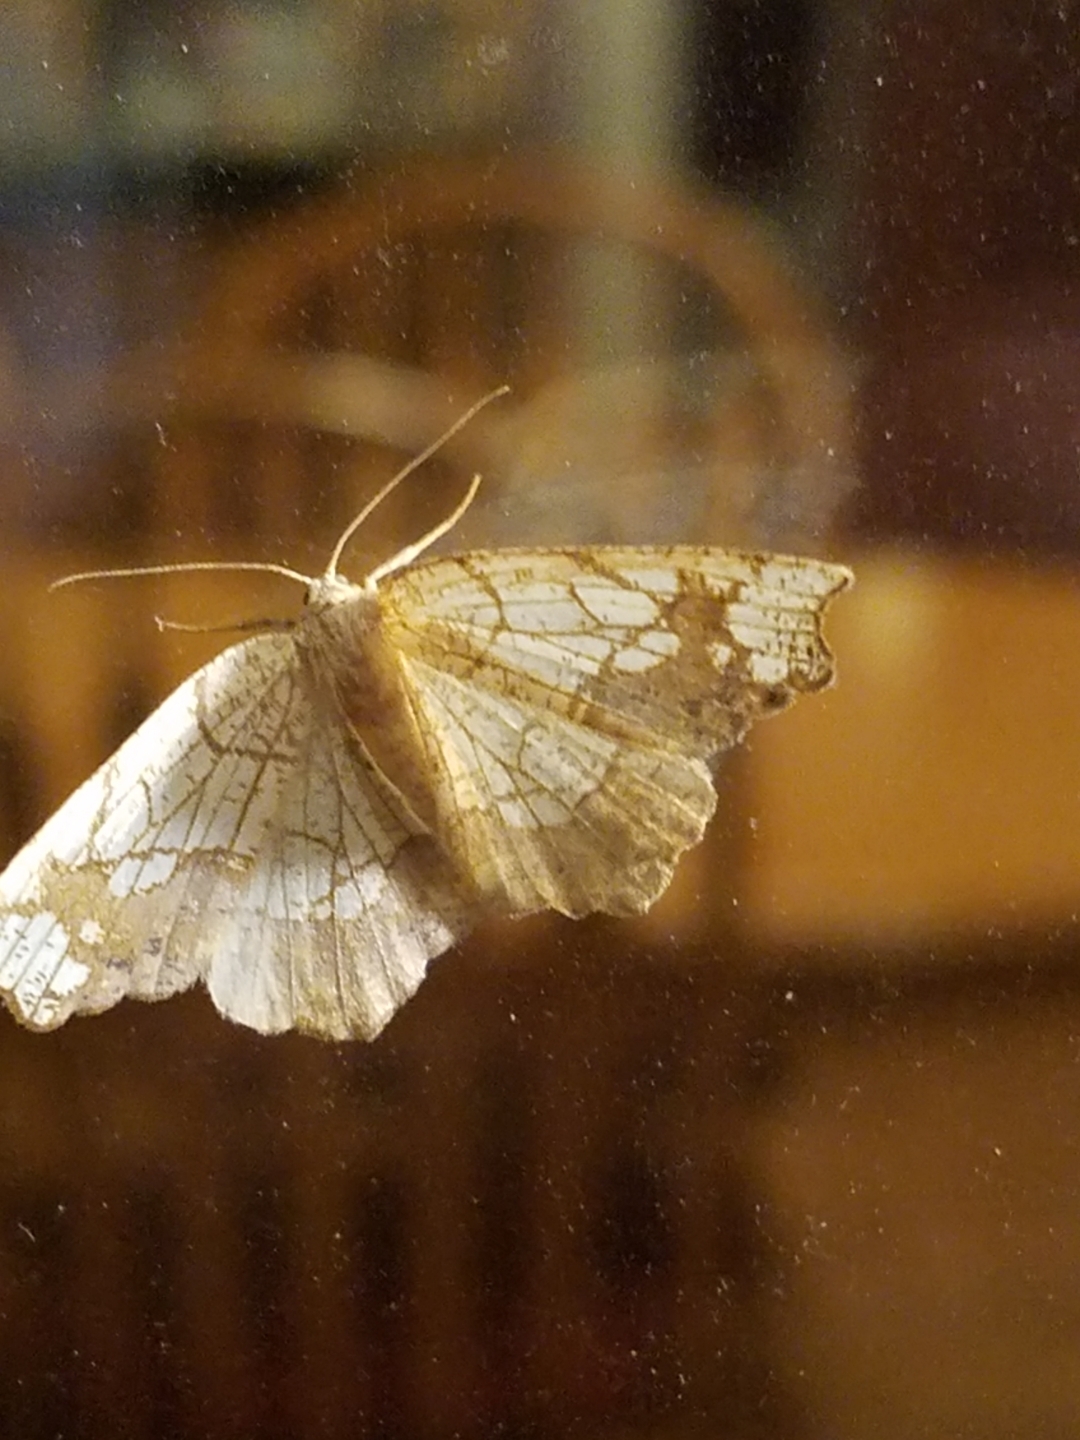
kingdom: Animalia
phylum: Arthropoda
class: Insecta
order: Lepidoptera
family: Geometridae
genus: Nematocampa
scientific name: Nematocampa resistaria
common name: Horned spanworm moth
